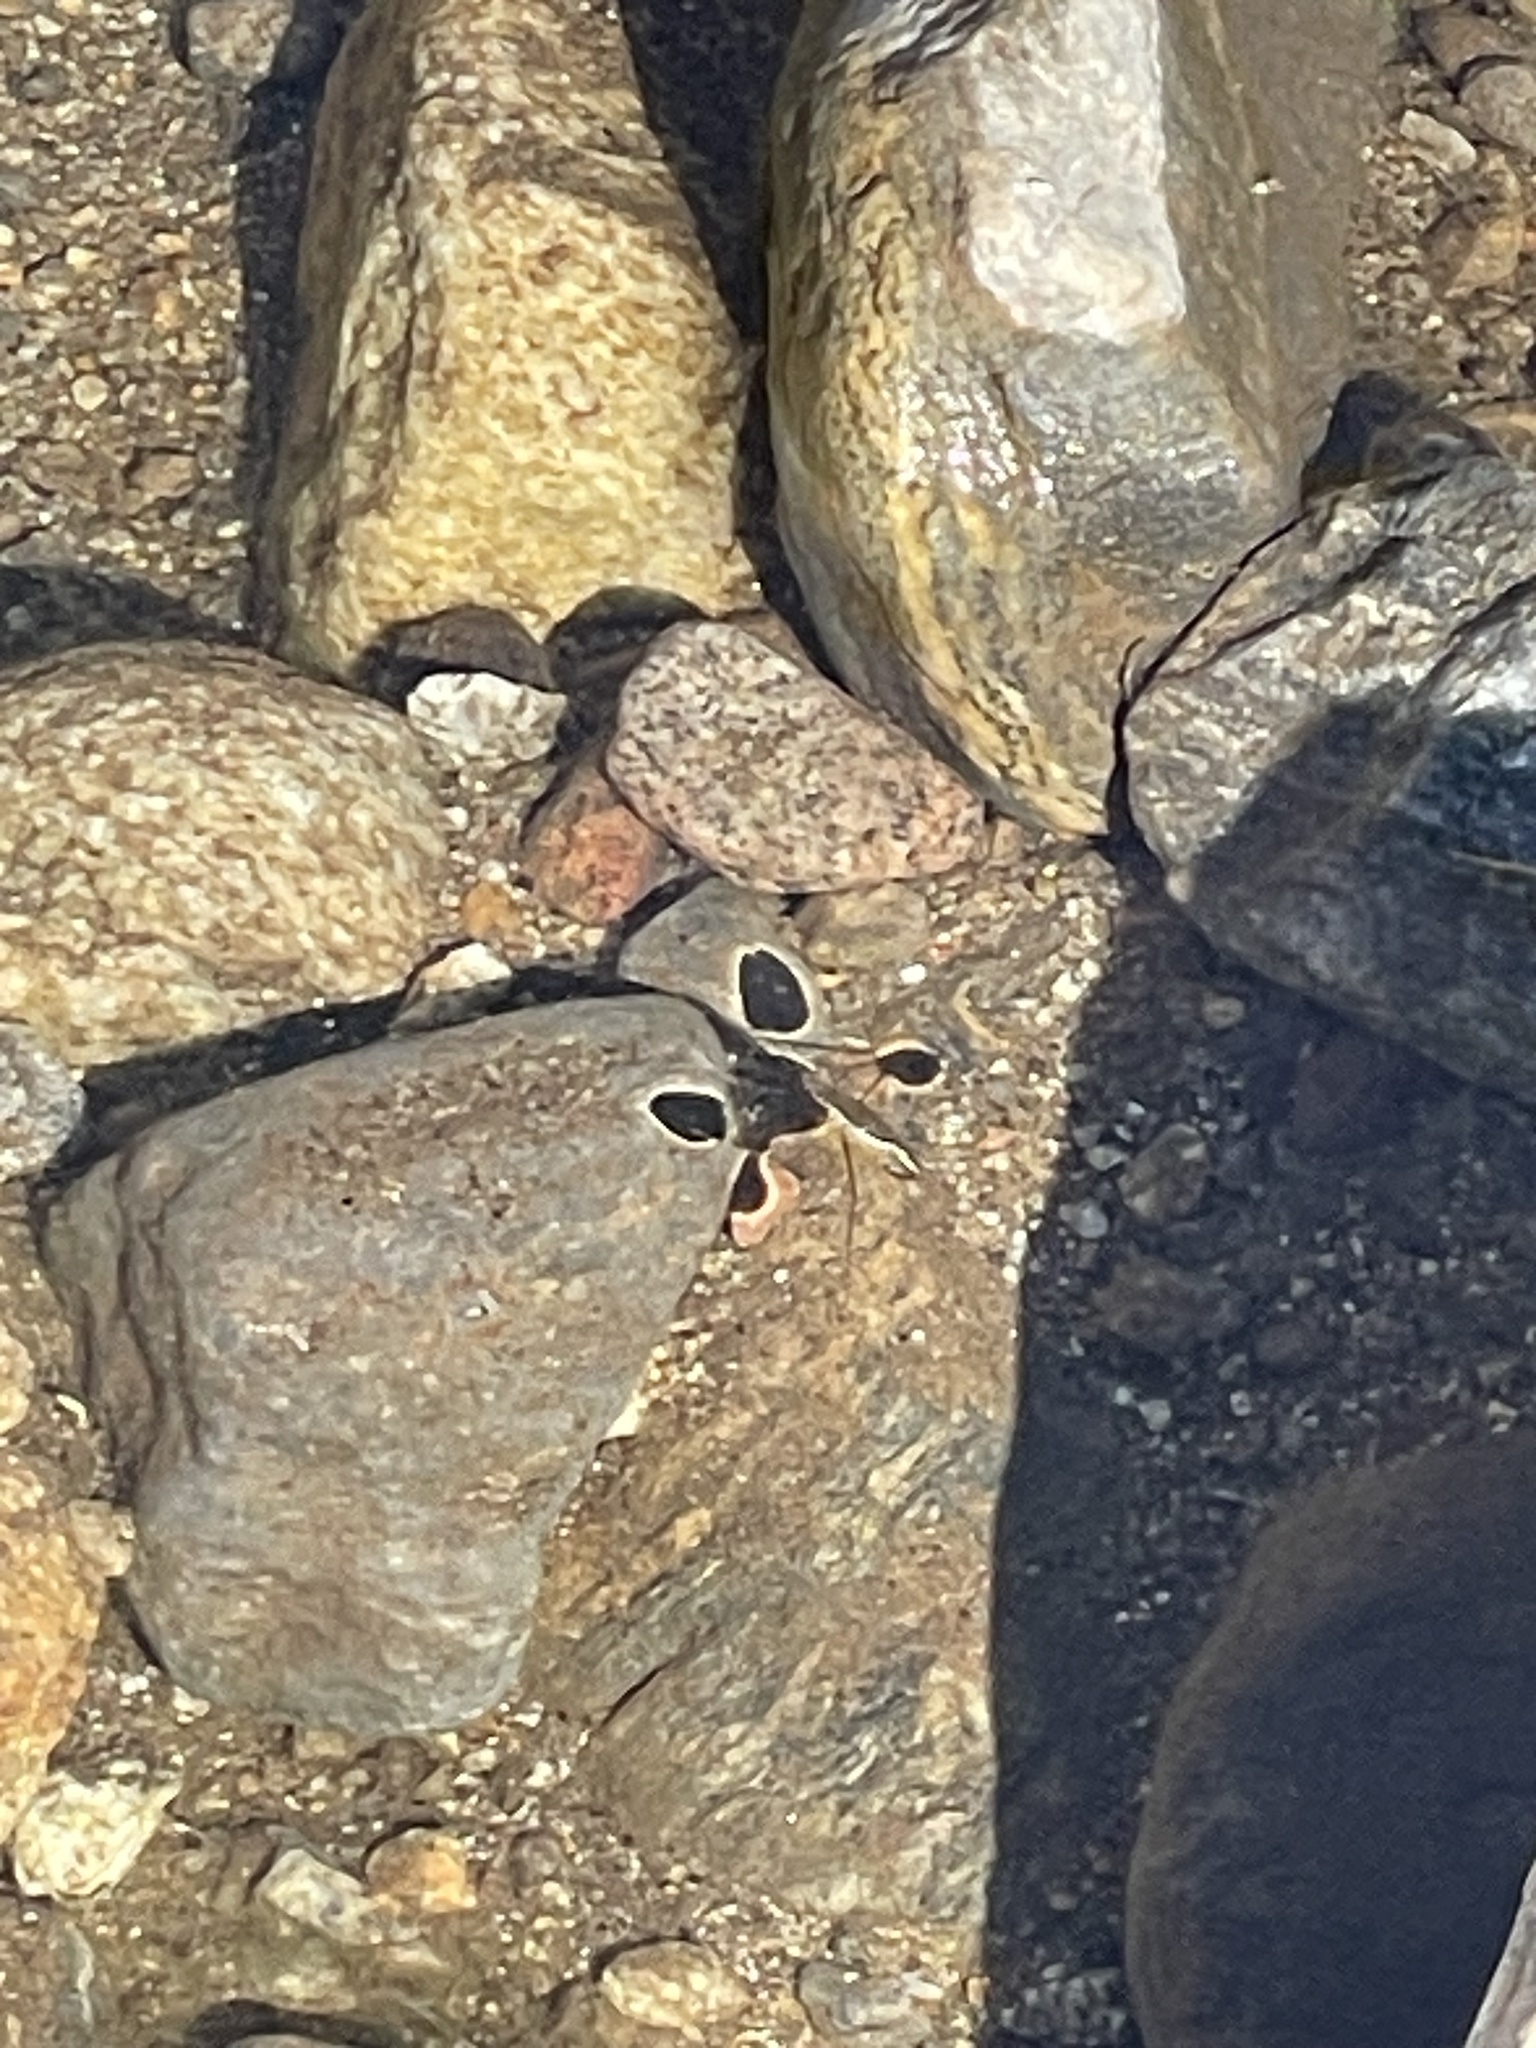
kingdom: Animalia
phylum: Arthropoda
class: Insecta
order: Hemiptera
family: Gerridae
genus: Aquarius
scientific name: Aquarius remigis
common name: Common water strider
